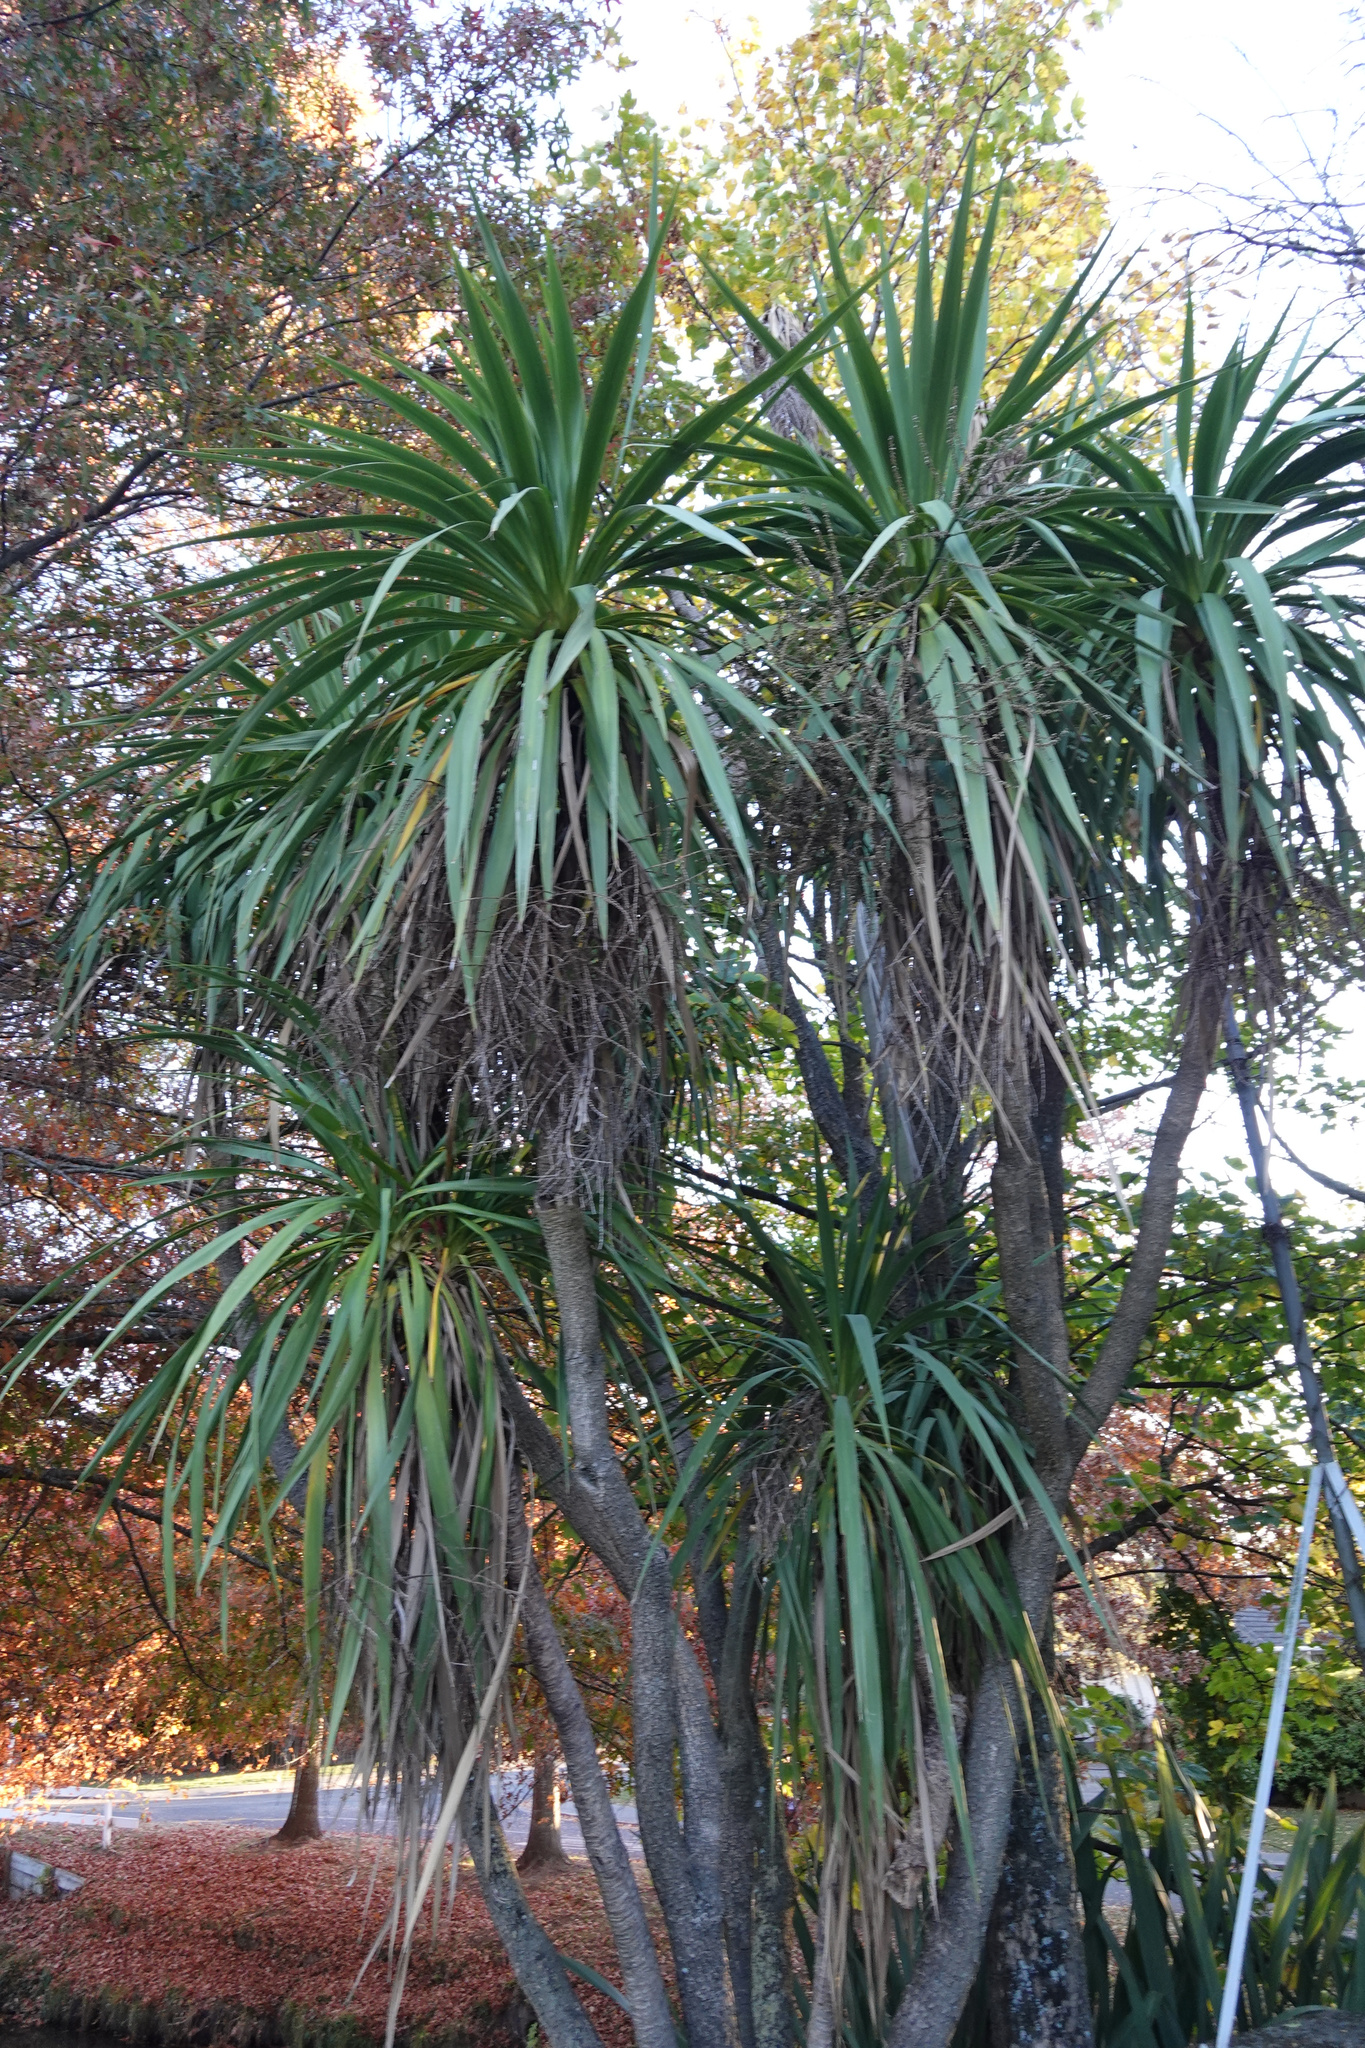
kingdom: Plantae
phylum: Tracheophyta
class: Liliopsida
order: Asparagales
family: Asparagaceae
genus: Cordyline
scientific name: Cordyline australis
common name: Cabbage-palm
